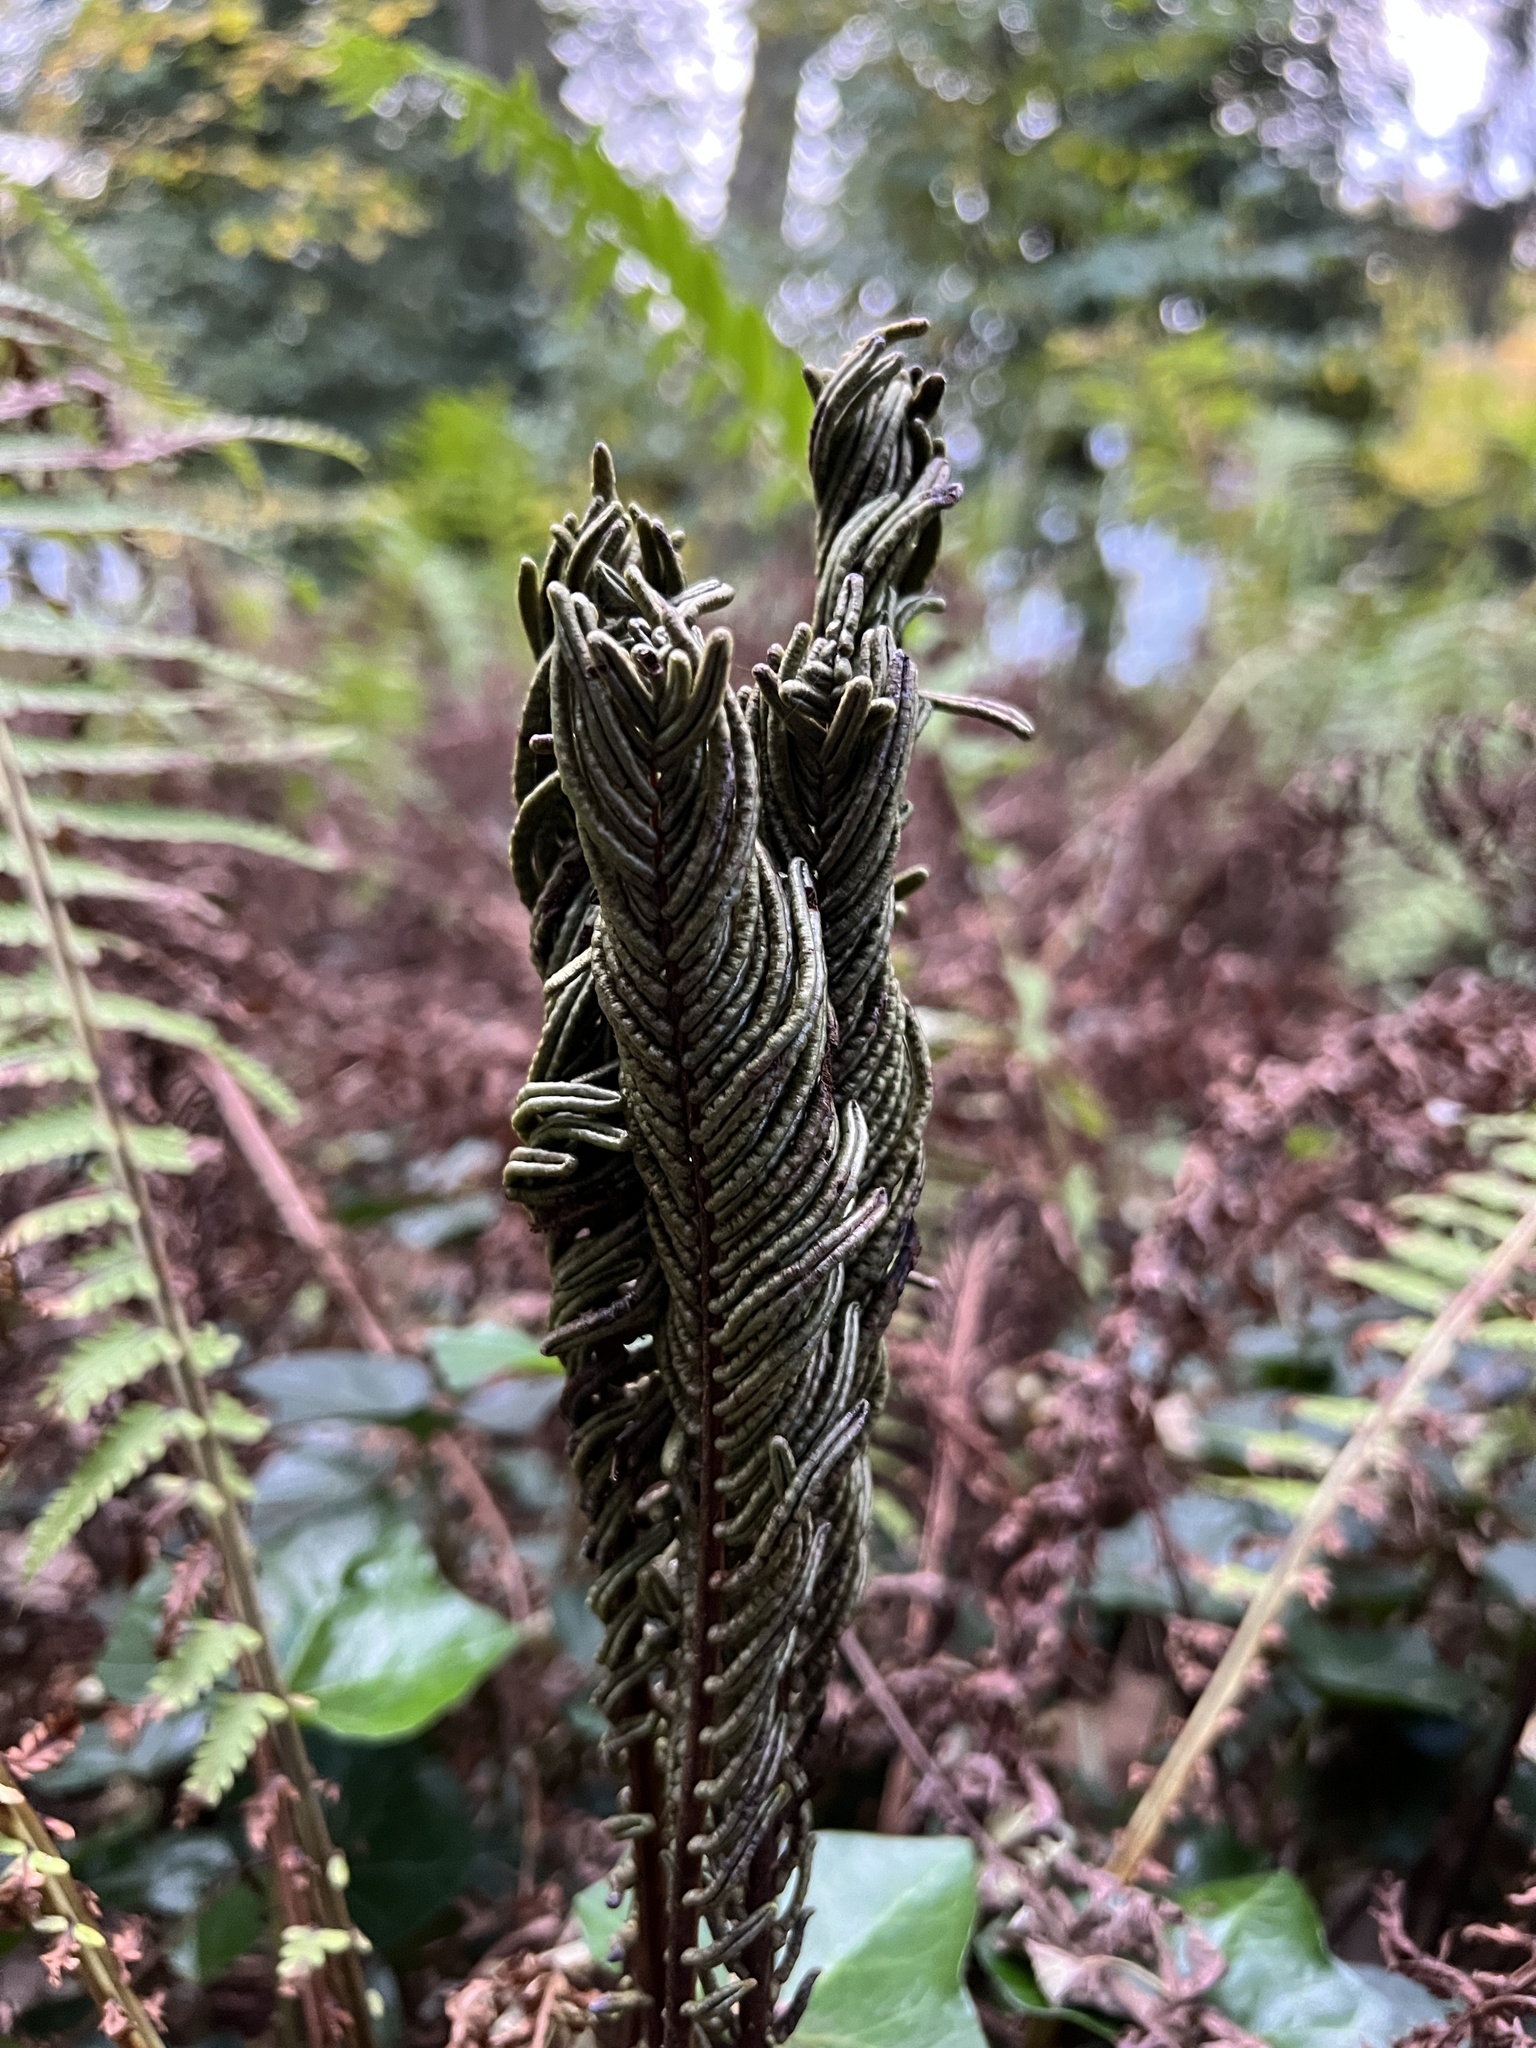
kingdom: Plantae
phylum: Tracheophyta
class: Polypodiopsida
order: Polypodiales
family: Onocleaceae
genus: Matteuccia
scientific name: Matteuccia struthiopteris
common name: Ostrich fern
